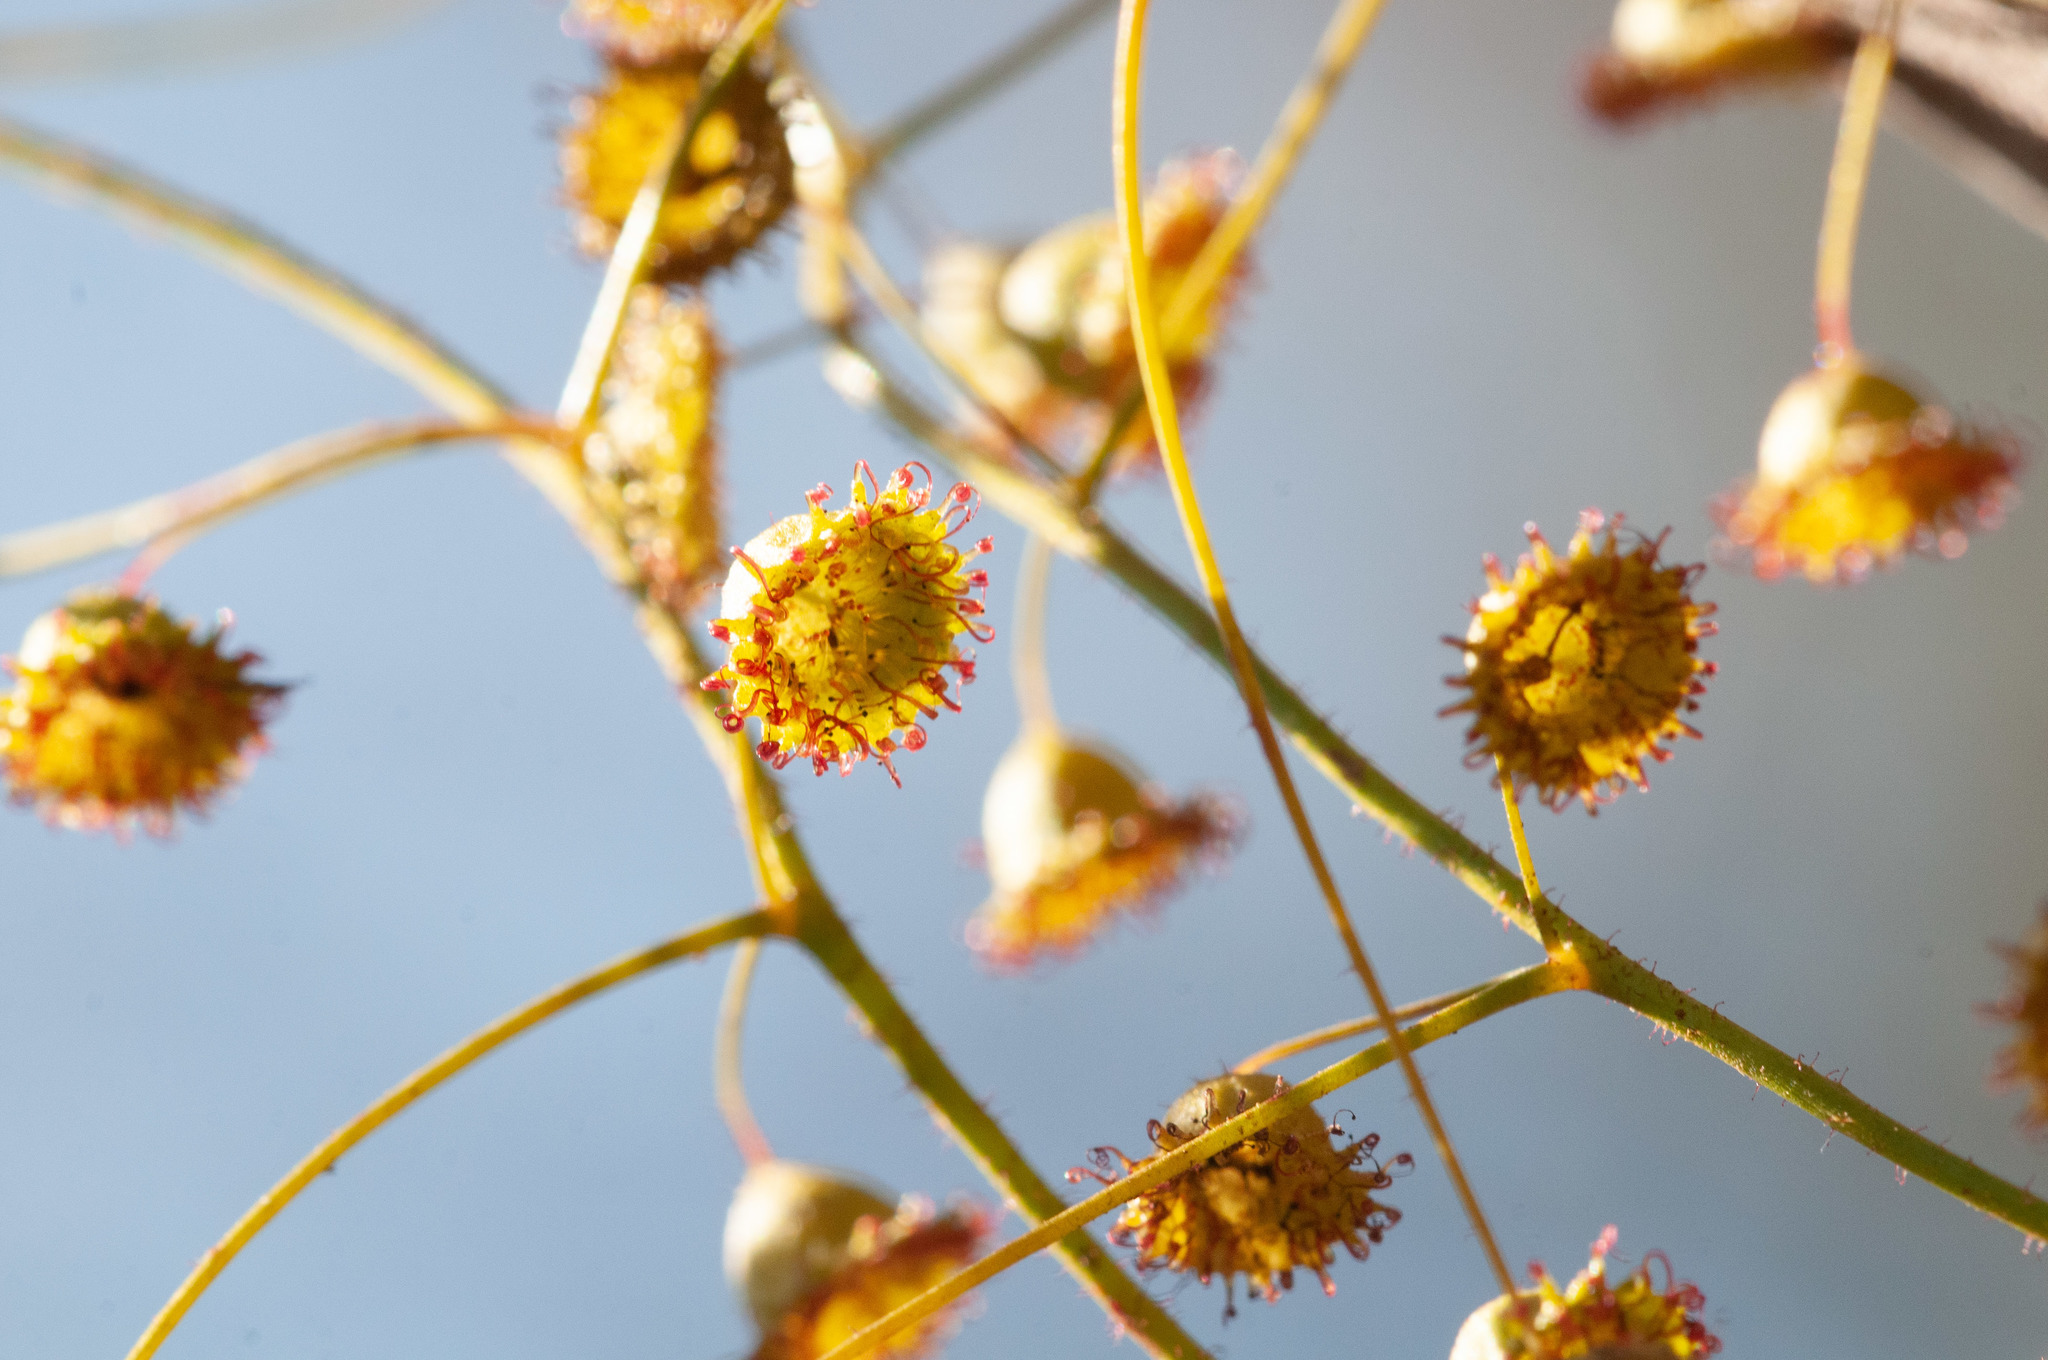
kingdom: Plantae
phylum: Tracheophyta
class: Magnoliopsida
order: Caryophyllales
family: Droseraceae
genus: Drosera
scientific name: Drosera planchonii
